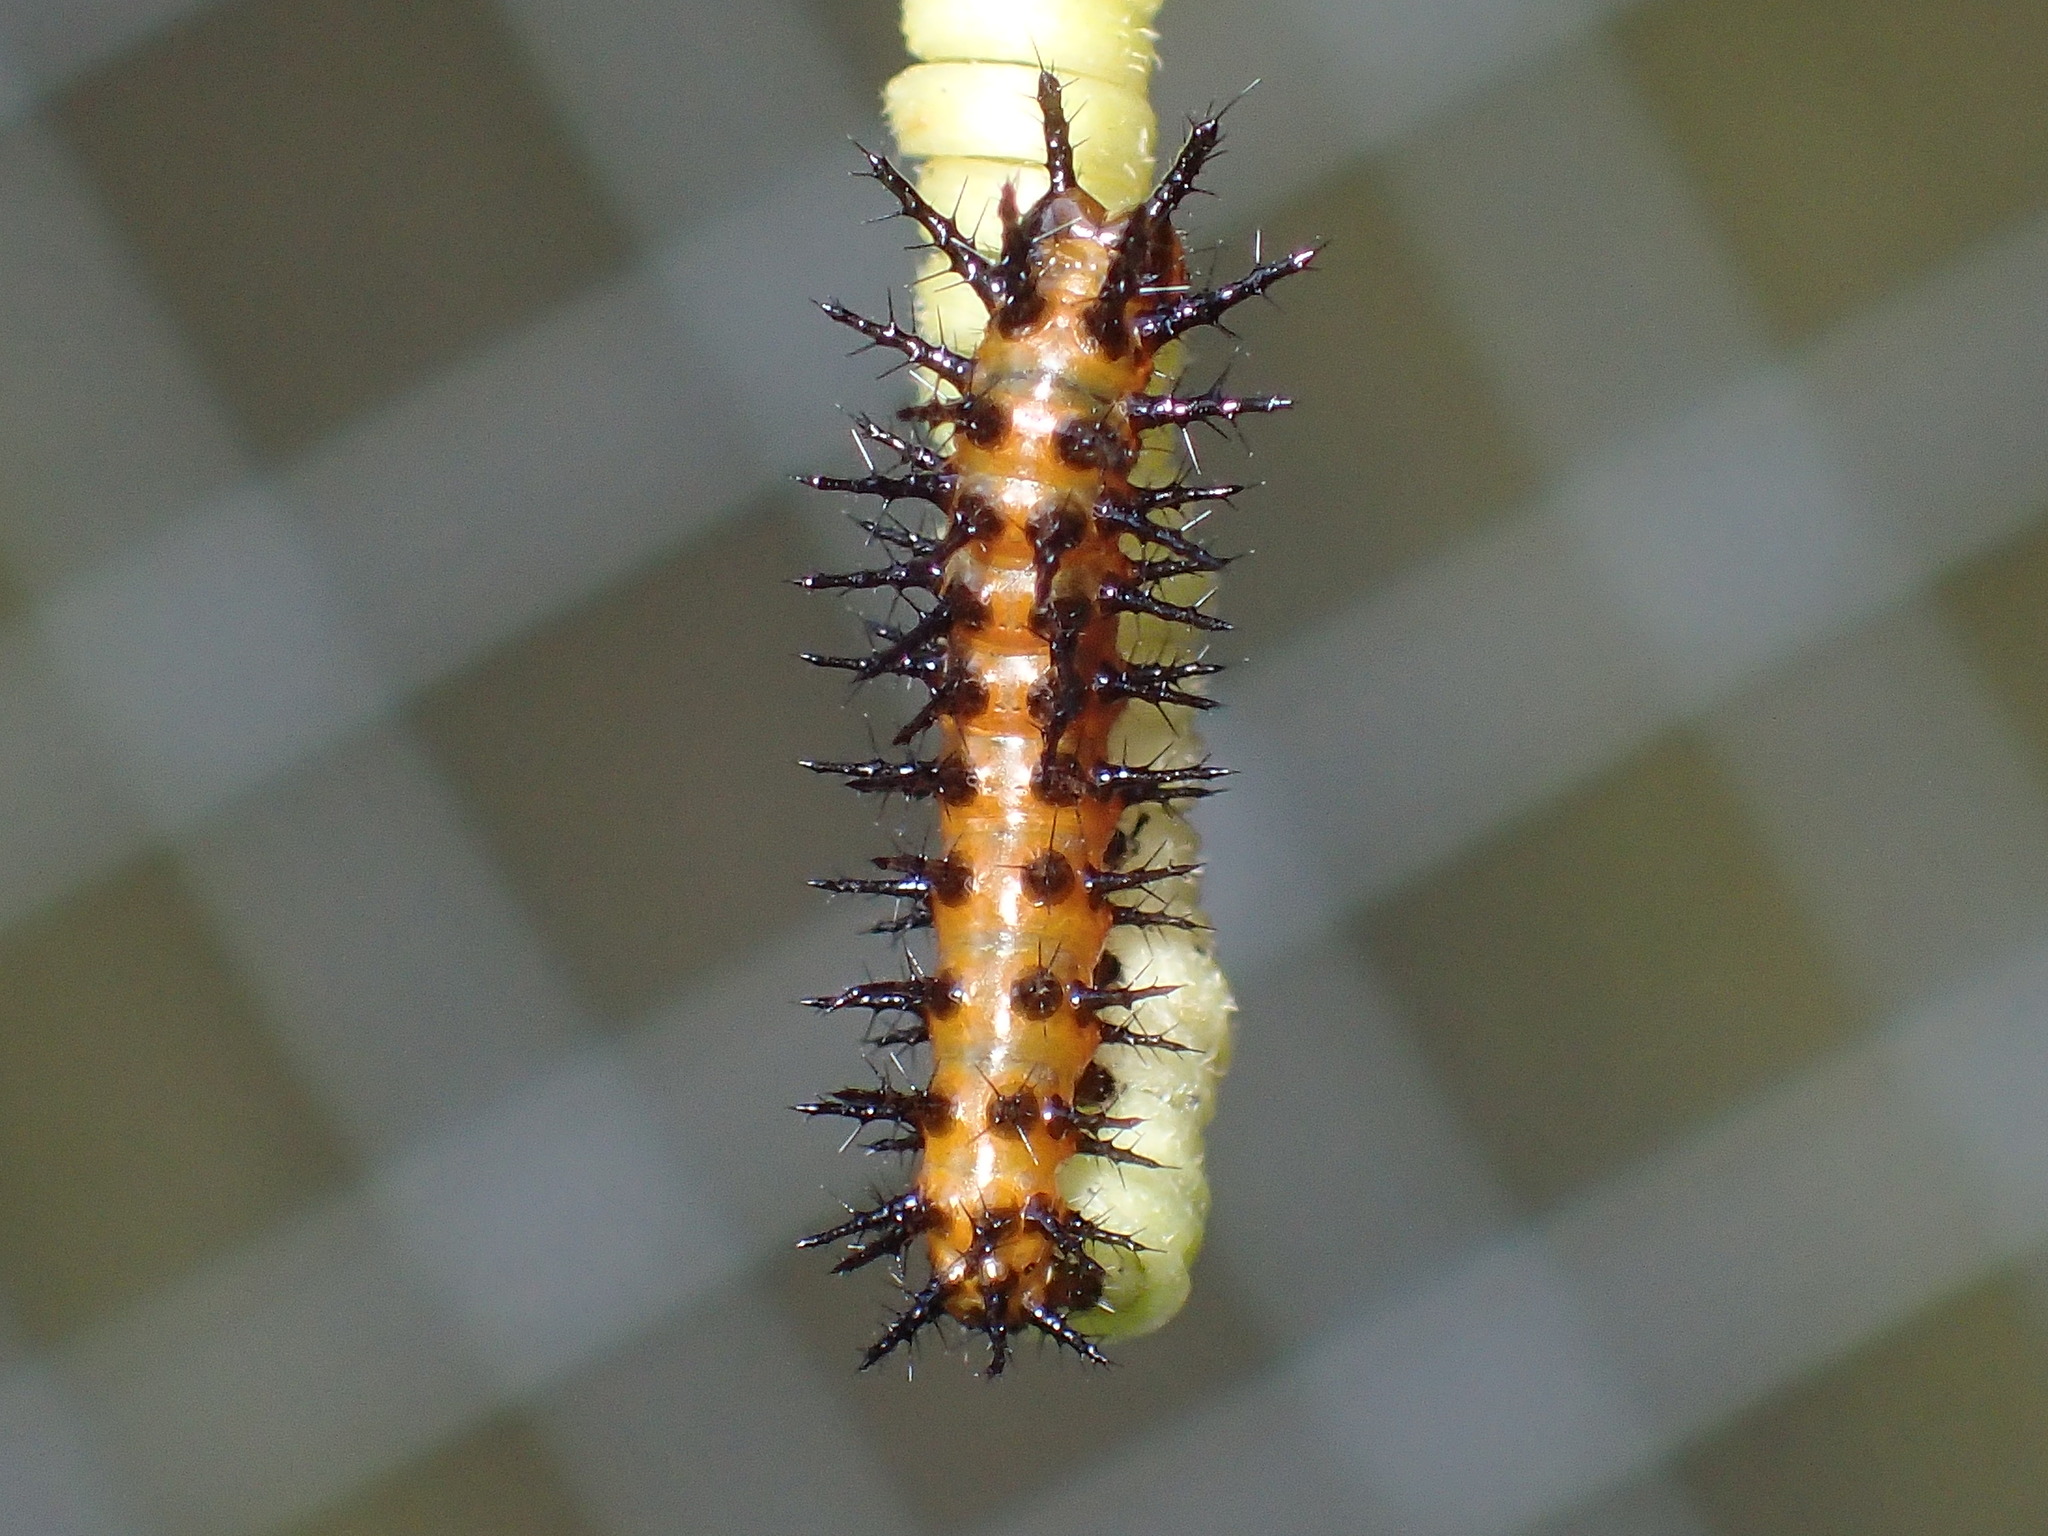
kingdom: Animalia
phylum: Arthropoda
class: Insecta
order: Lepidoptera
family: Nymphalidae
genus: Dione
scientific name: Dione vanillae
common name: Gulf fritillary
